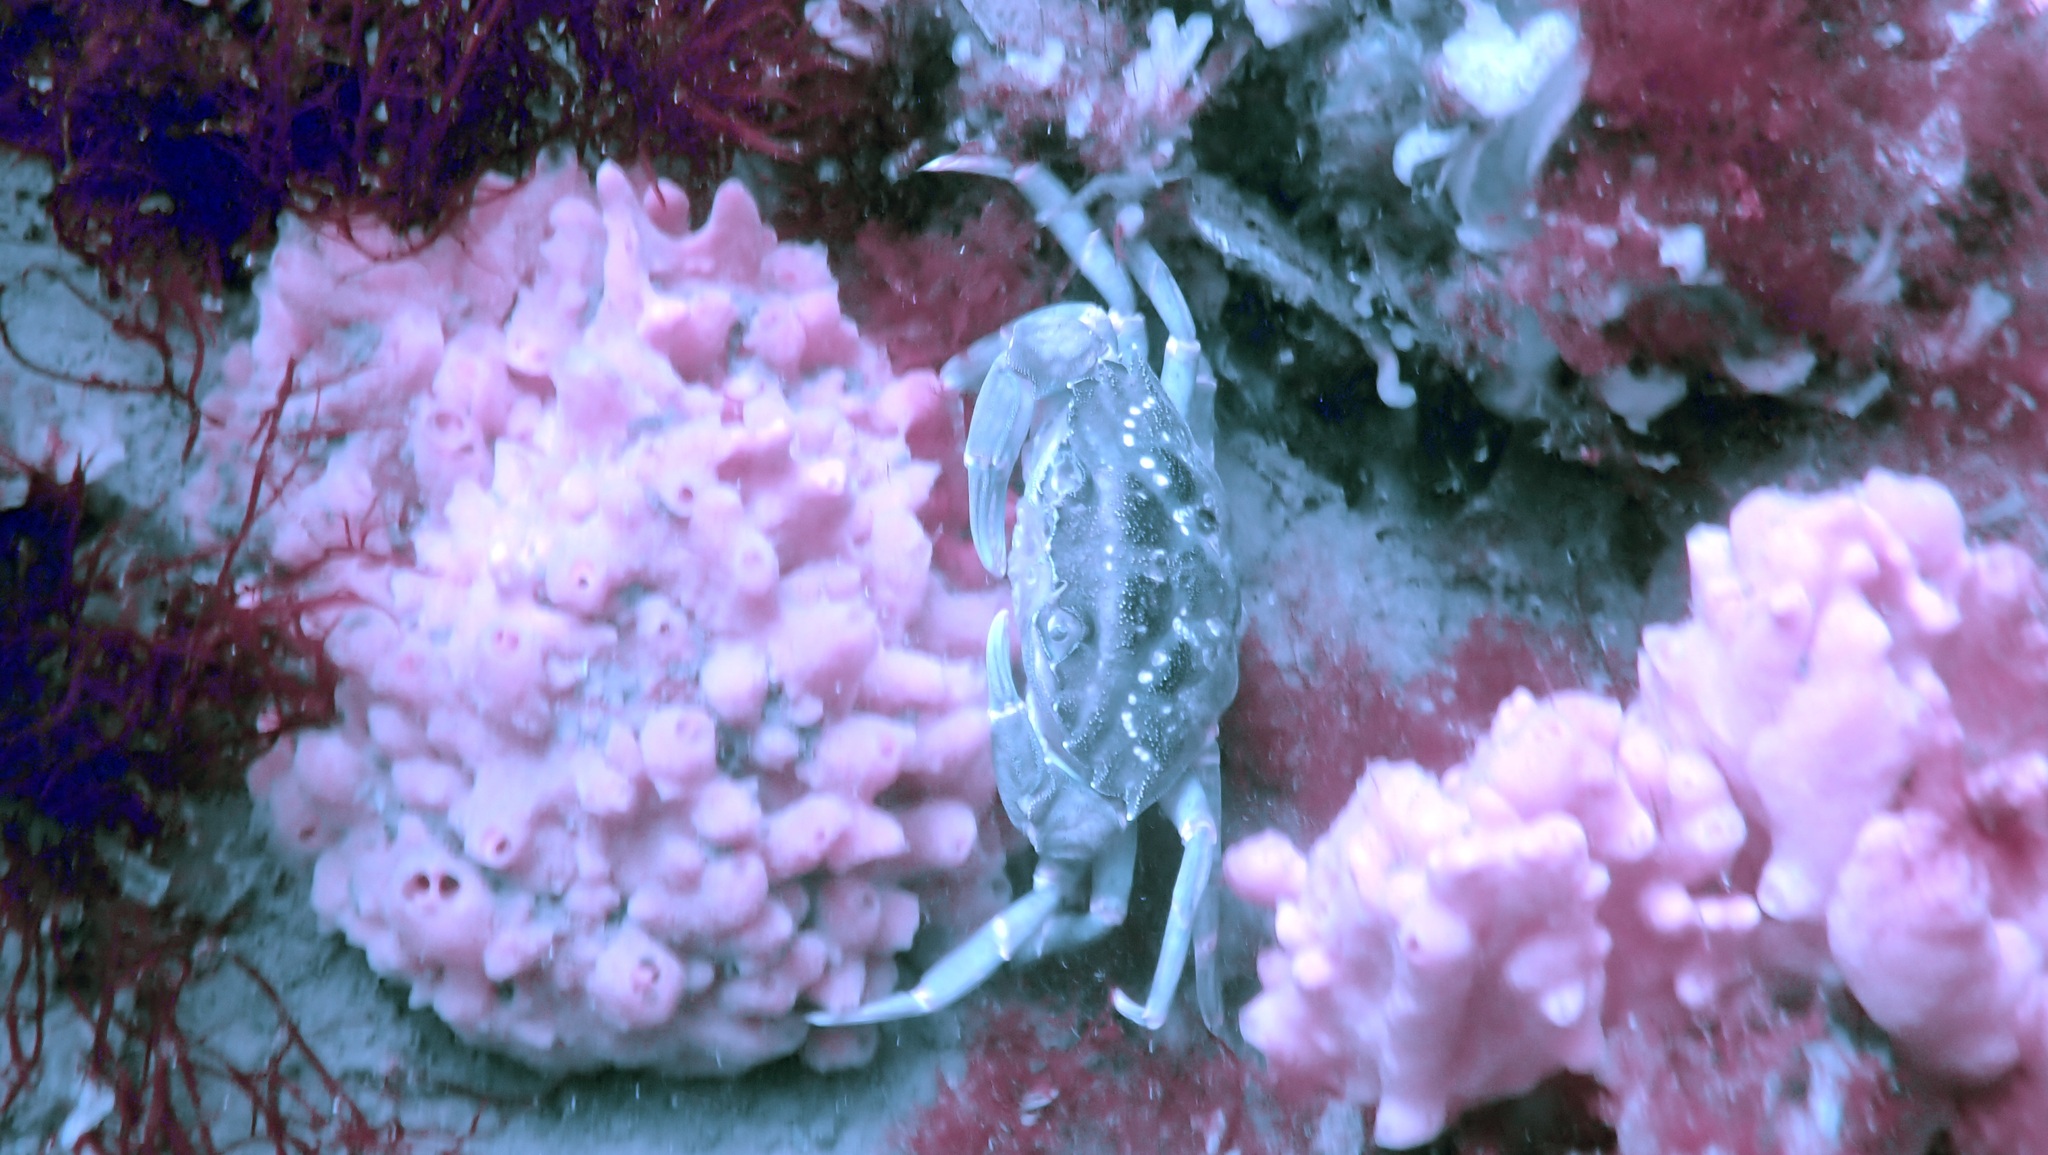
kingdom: Animalia
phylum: Arthropoda
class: Malacostraca
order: Decapoda
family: Carcinidae
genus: Carcinus
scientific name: Carcinus maenas
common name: European green crab
